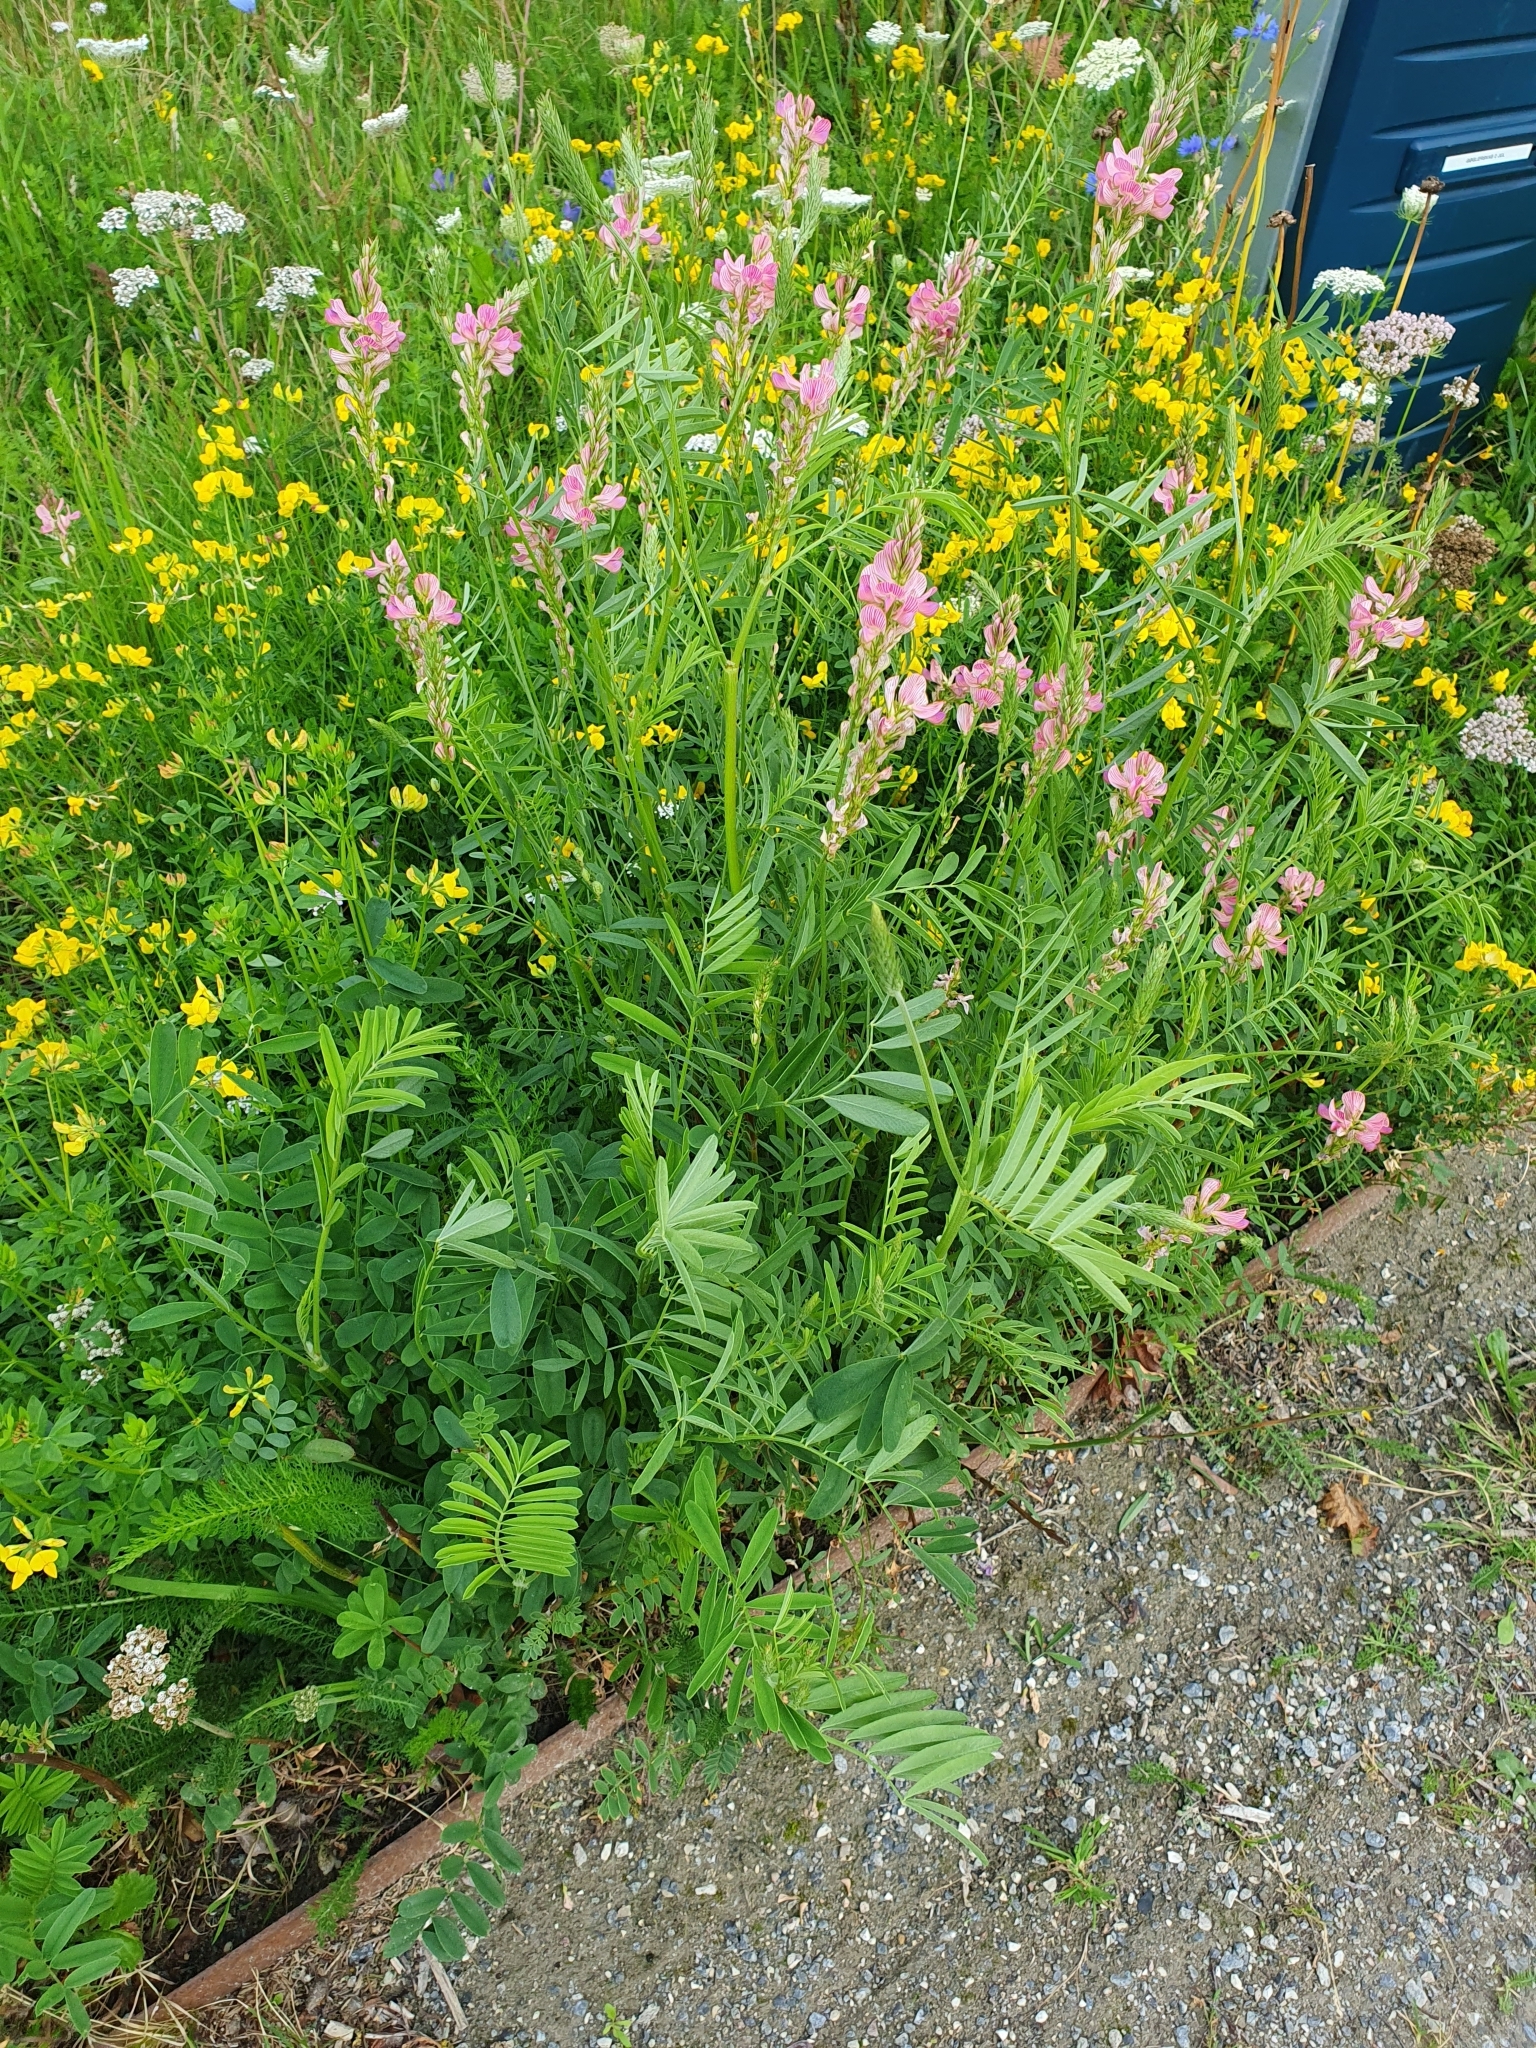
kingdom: Plantae
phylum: Tracheophyta
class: Magnoliopsida
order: Fabales
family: Fabaceae
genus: Onobrychis
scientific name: Onobrychis viciifolia
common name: Sainfoin
